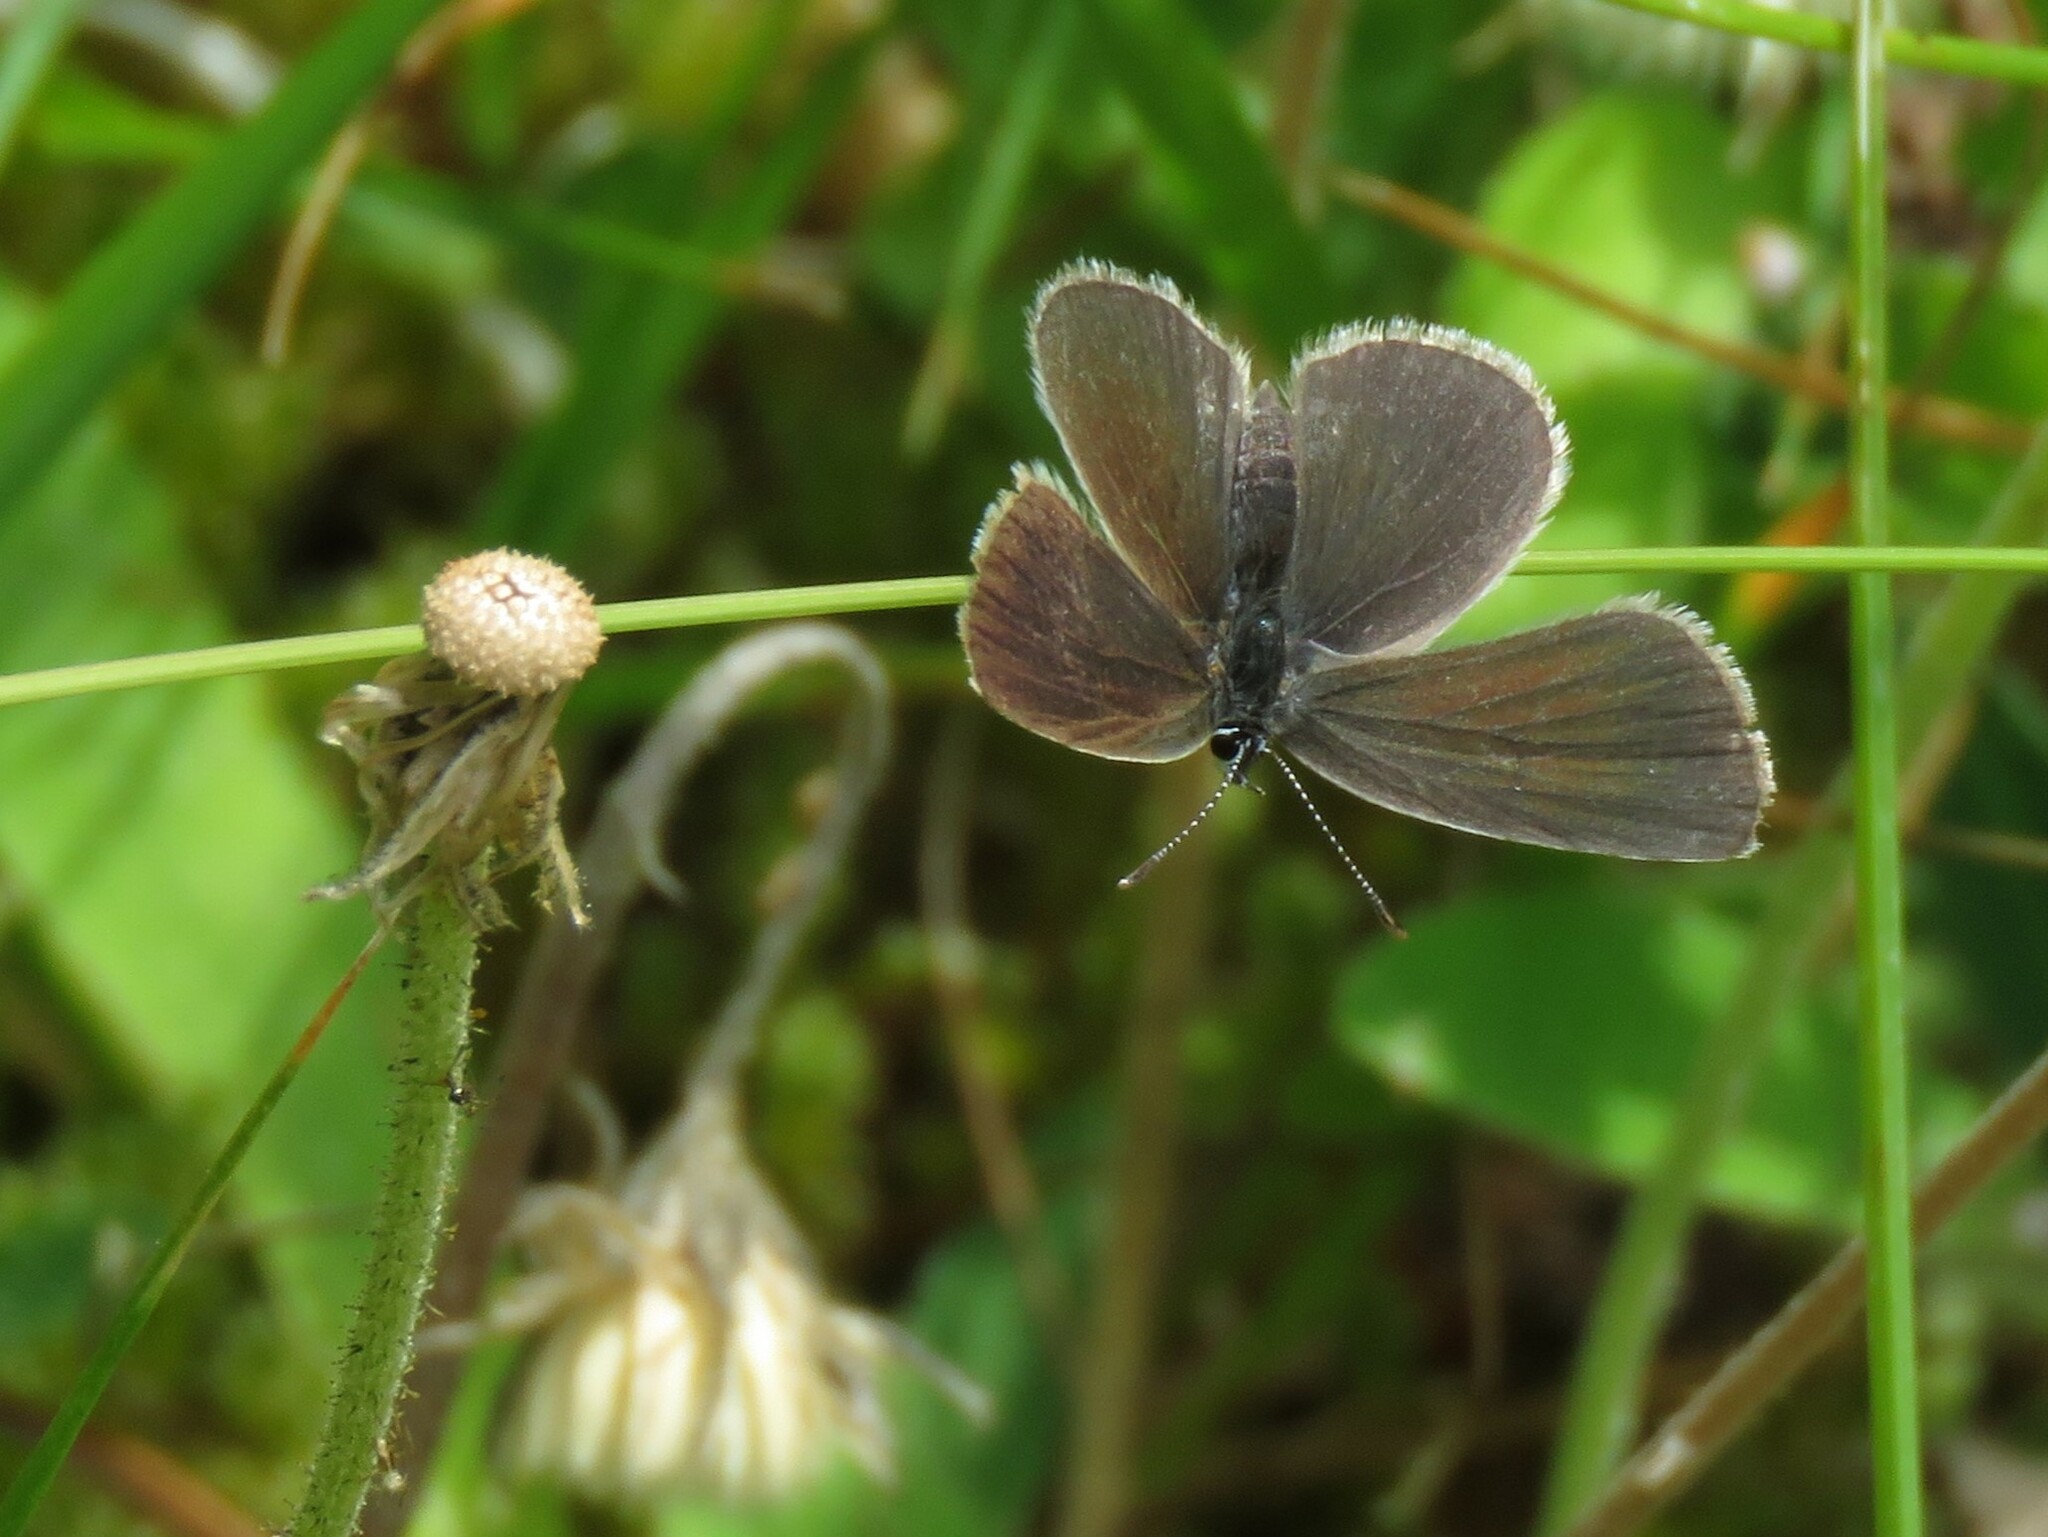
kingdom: Animalia
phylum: Arthropoda
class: Insecta
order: Lepidoptera
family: Lycaenidae
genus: Cupido
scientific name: Cupido minimus
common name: Small blue
